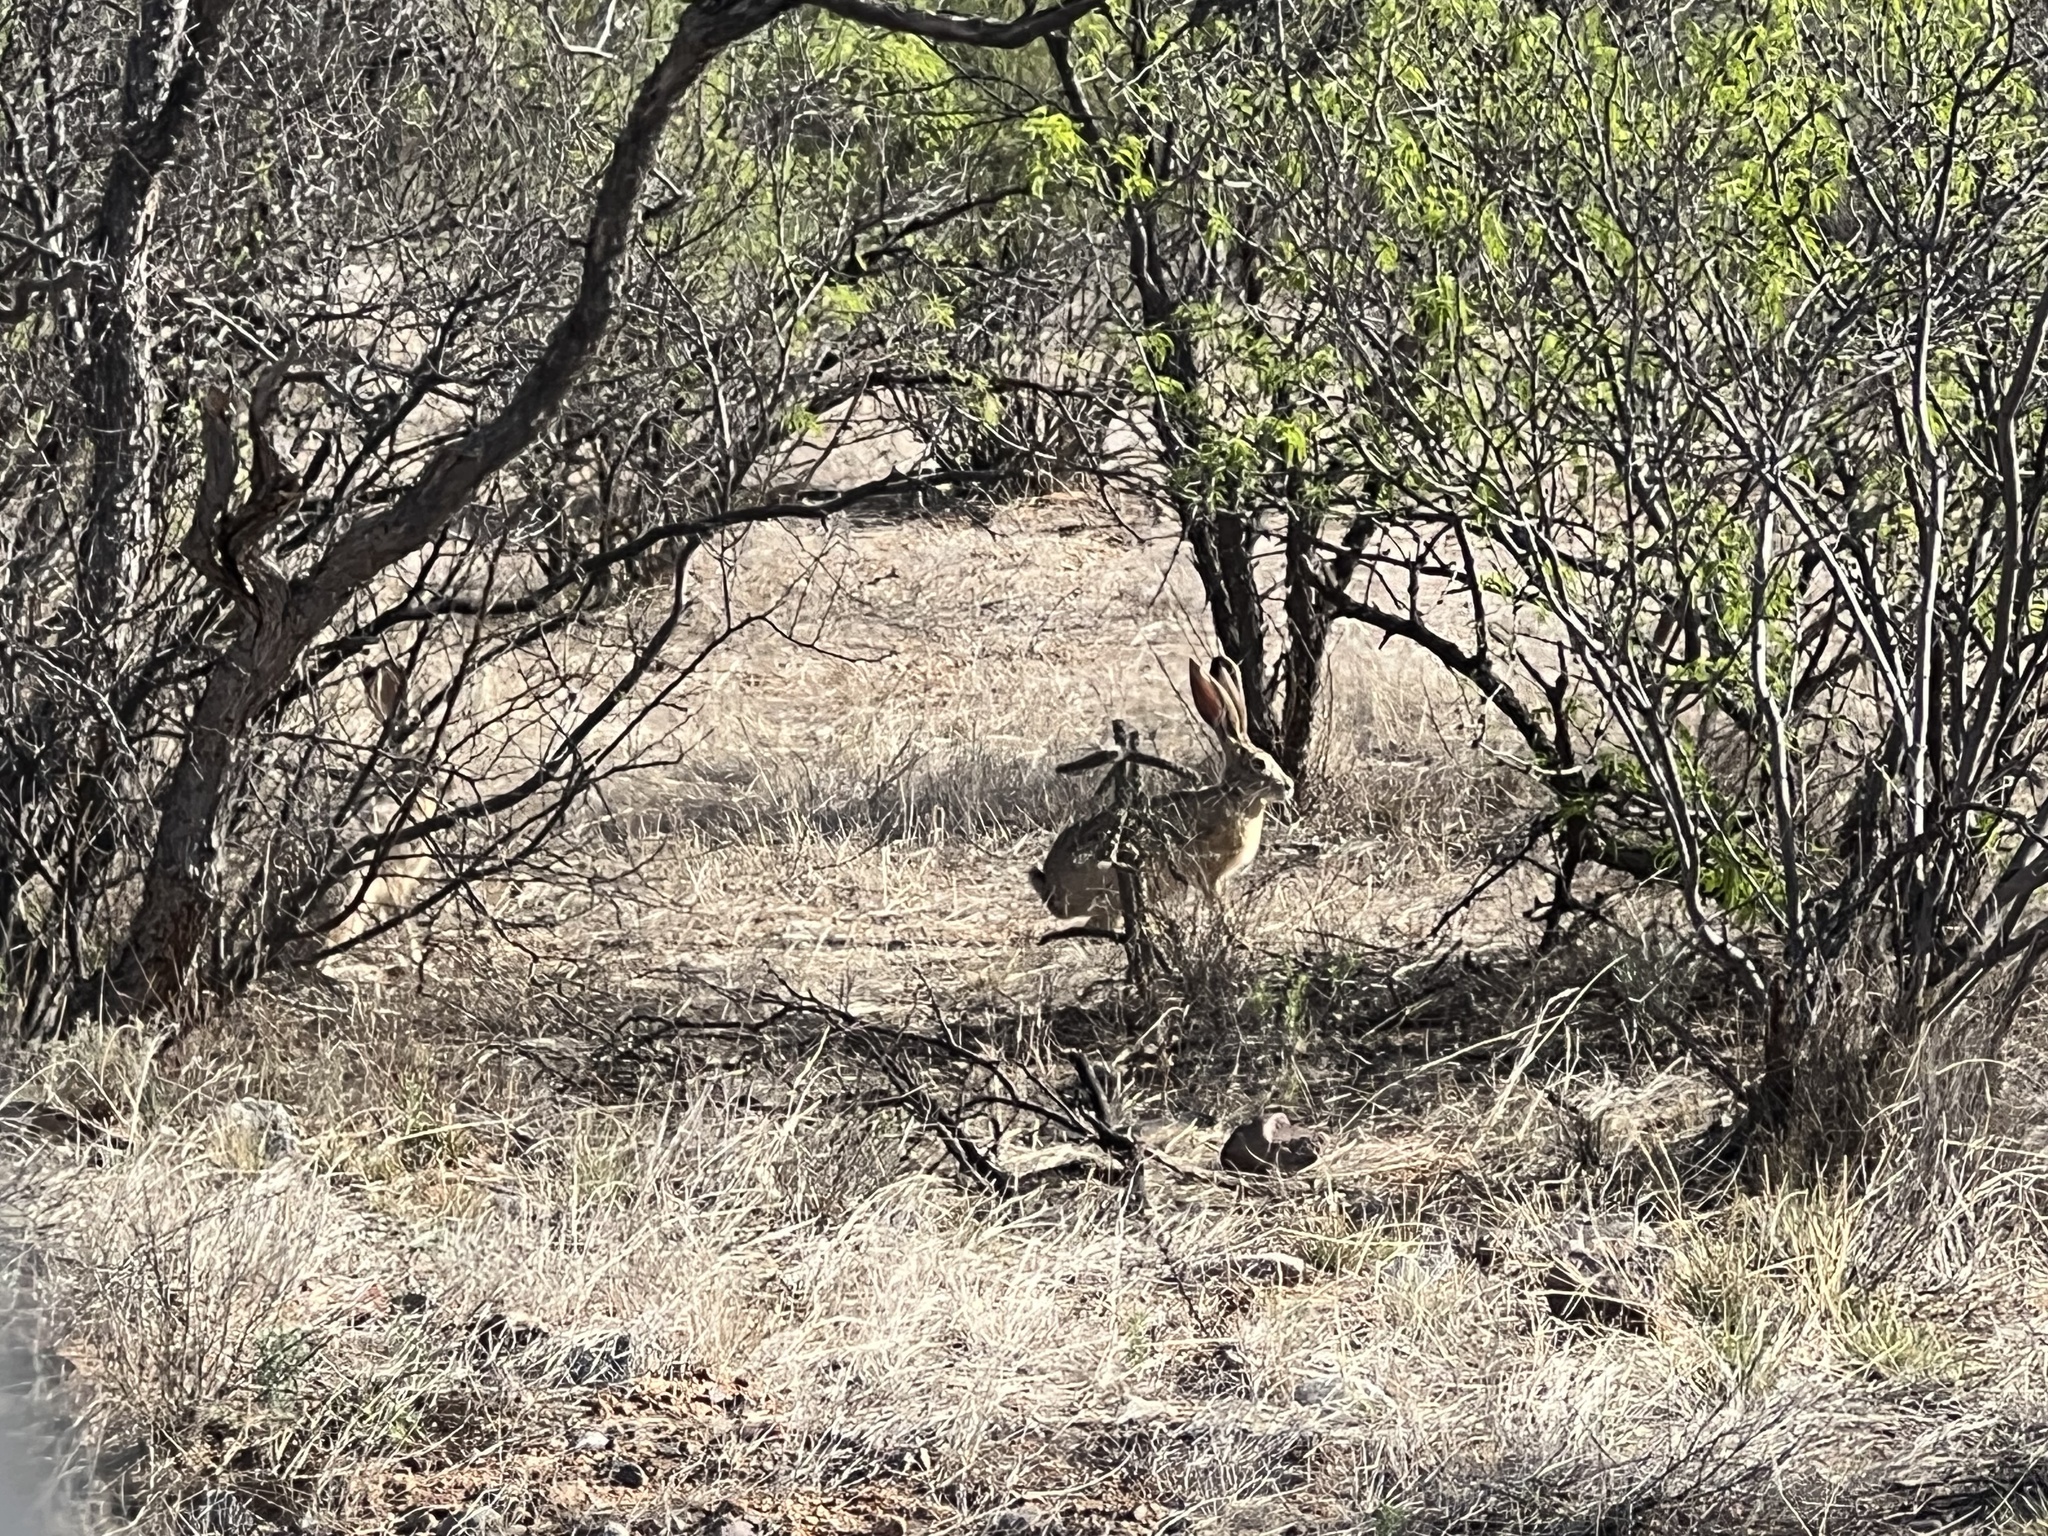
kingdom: Animalia
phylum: Chordata
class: Mammalia
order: Lagomorpha
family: Leporidae
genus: Lepus
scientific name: Lepus californicus
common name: Black-tailed jackrabbit
